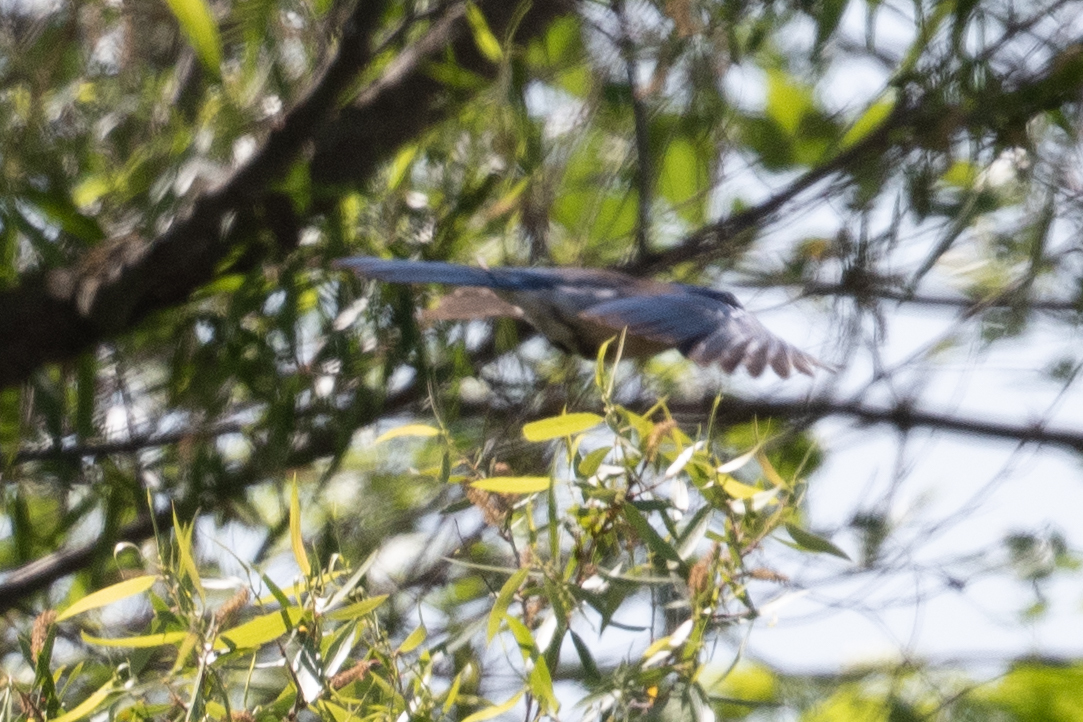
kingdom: Animalia
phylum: Chordata
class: Aves
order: Passeriformes
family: Corvidae
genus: Aphelocoma
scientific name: Aphelocoma californica
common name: California scrub-jay
